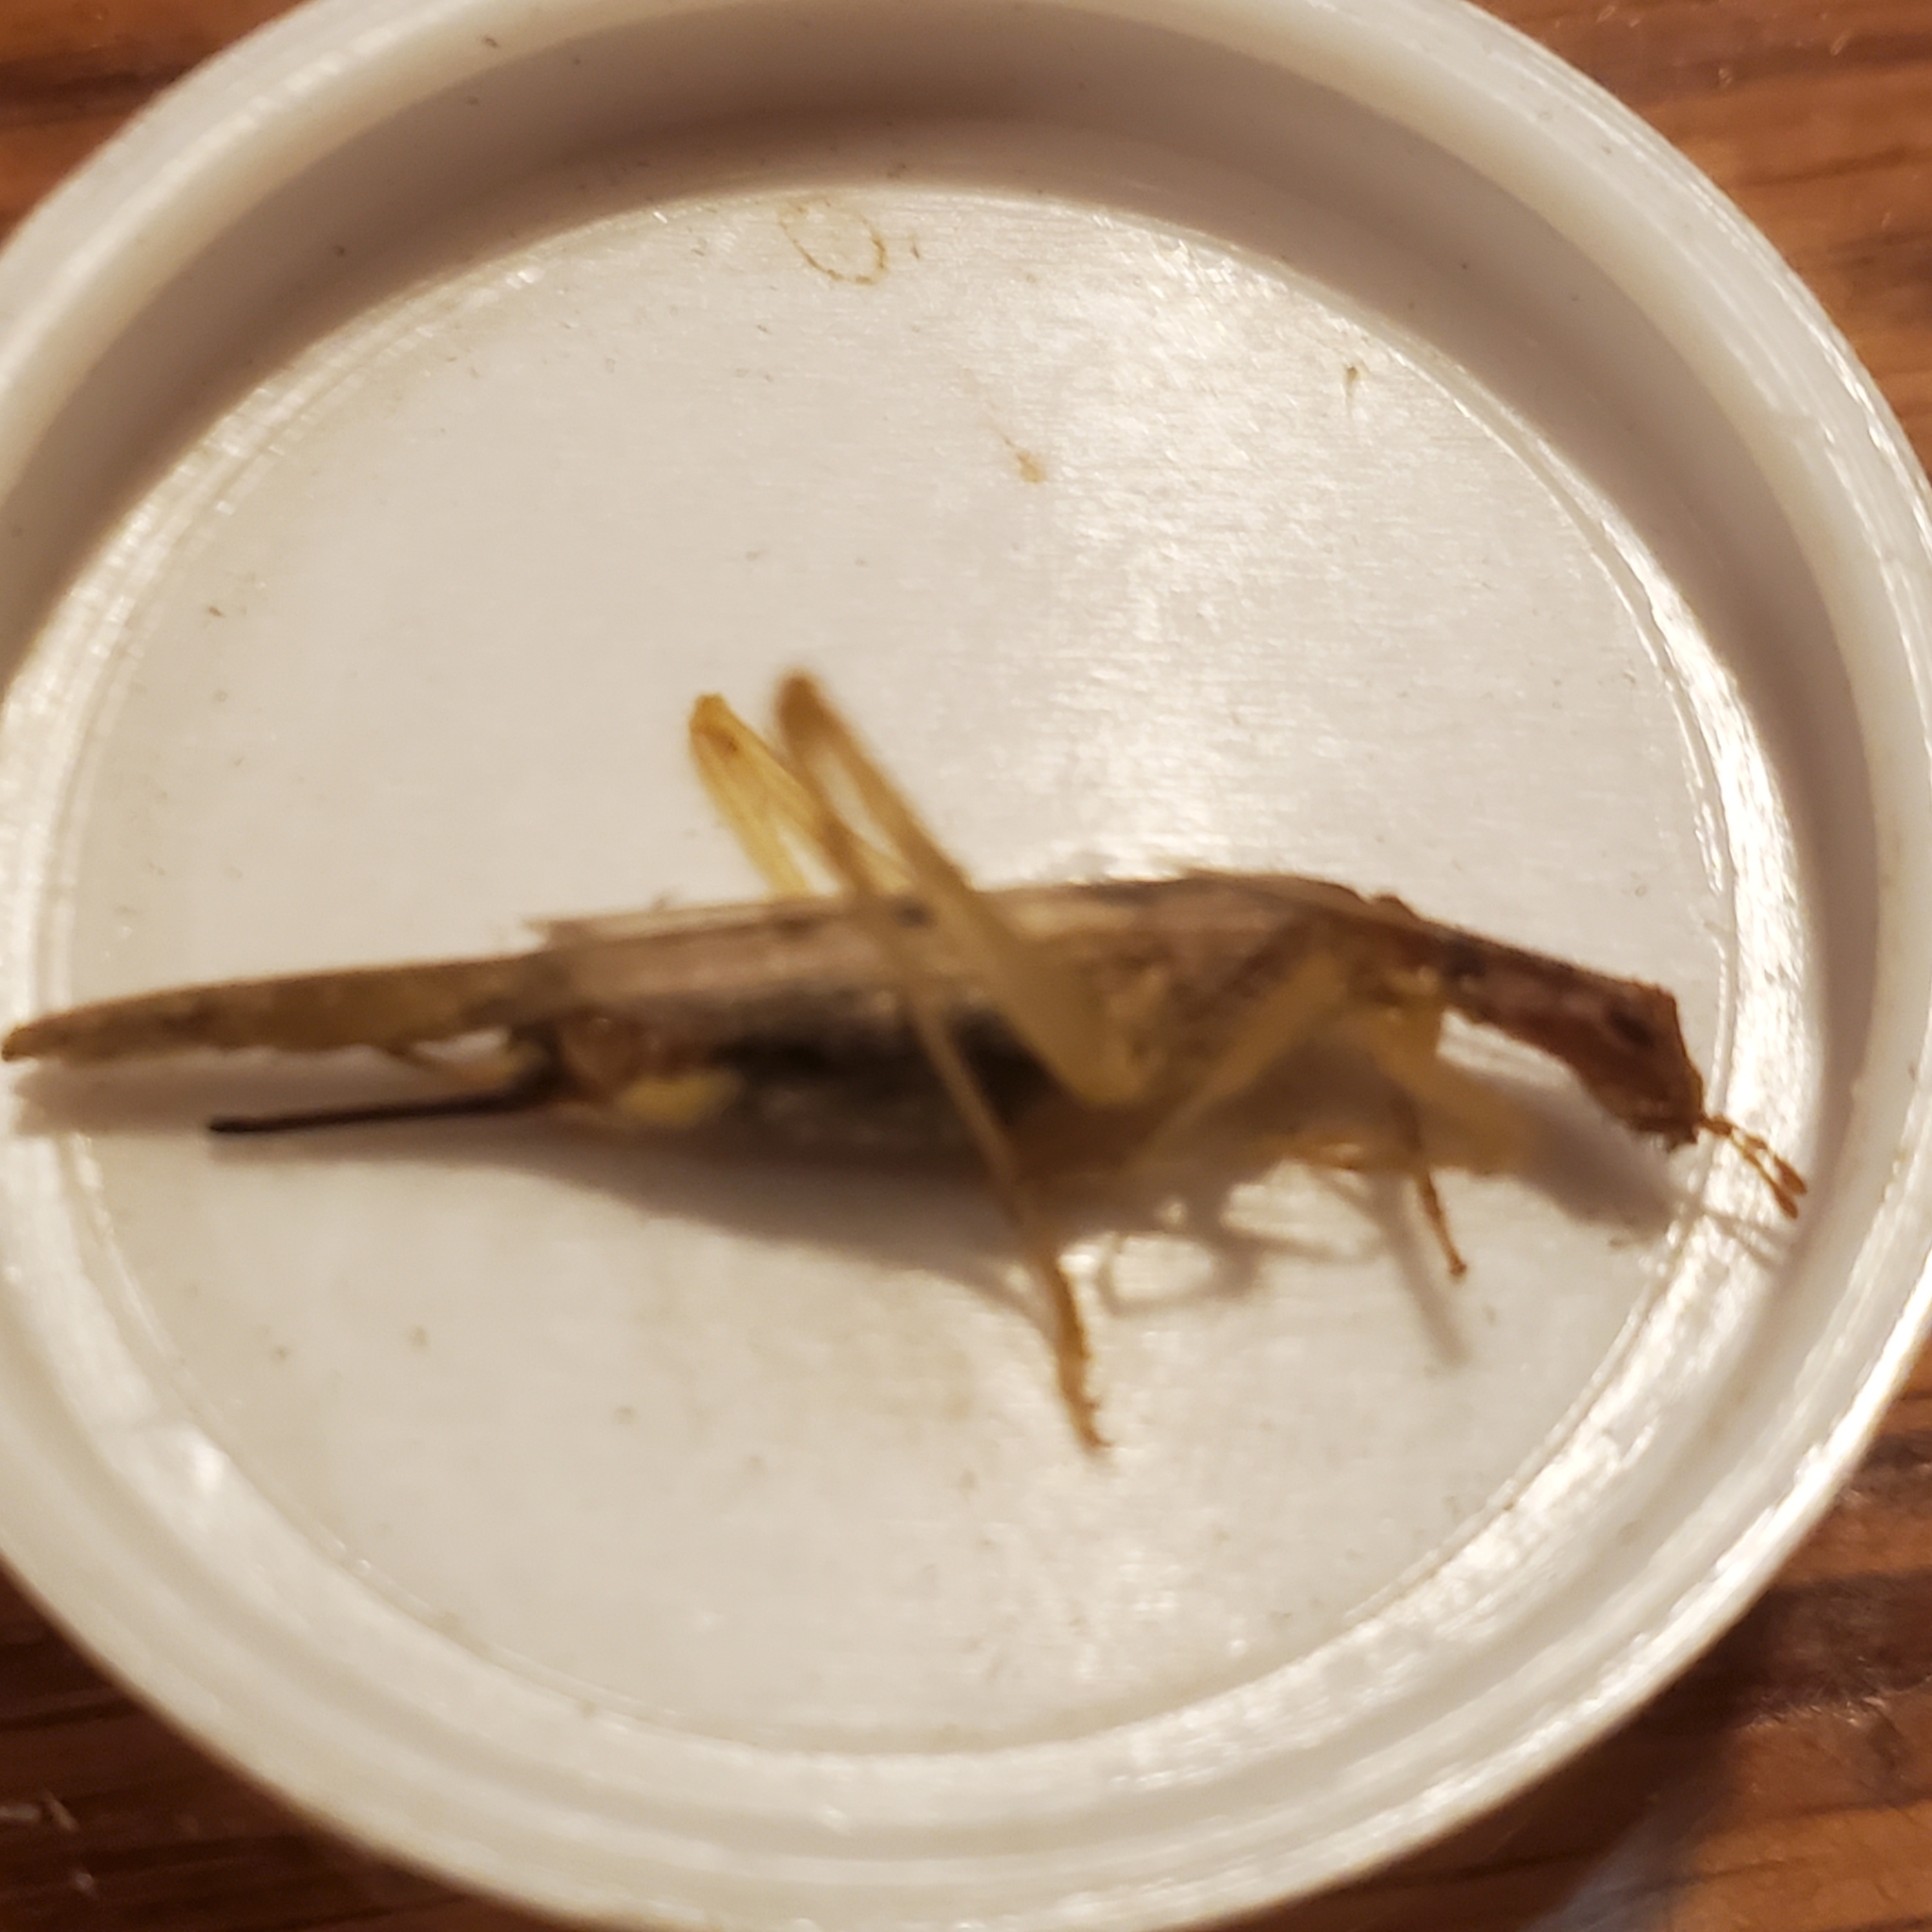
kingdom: Animalia
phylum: Arthropoda
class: Insecta
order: Orthoptera
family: Gryllidae
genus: Neoxabea
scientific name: Neoxabea bipunctata
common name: Two-spotted tree cricket
